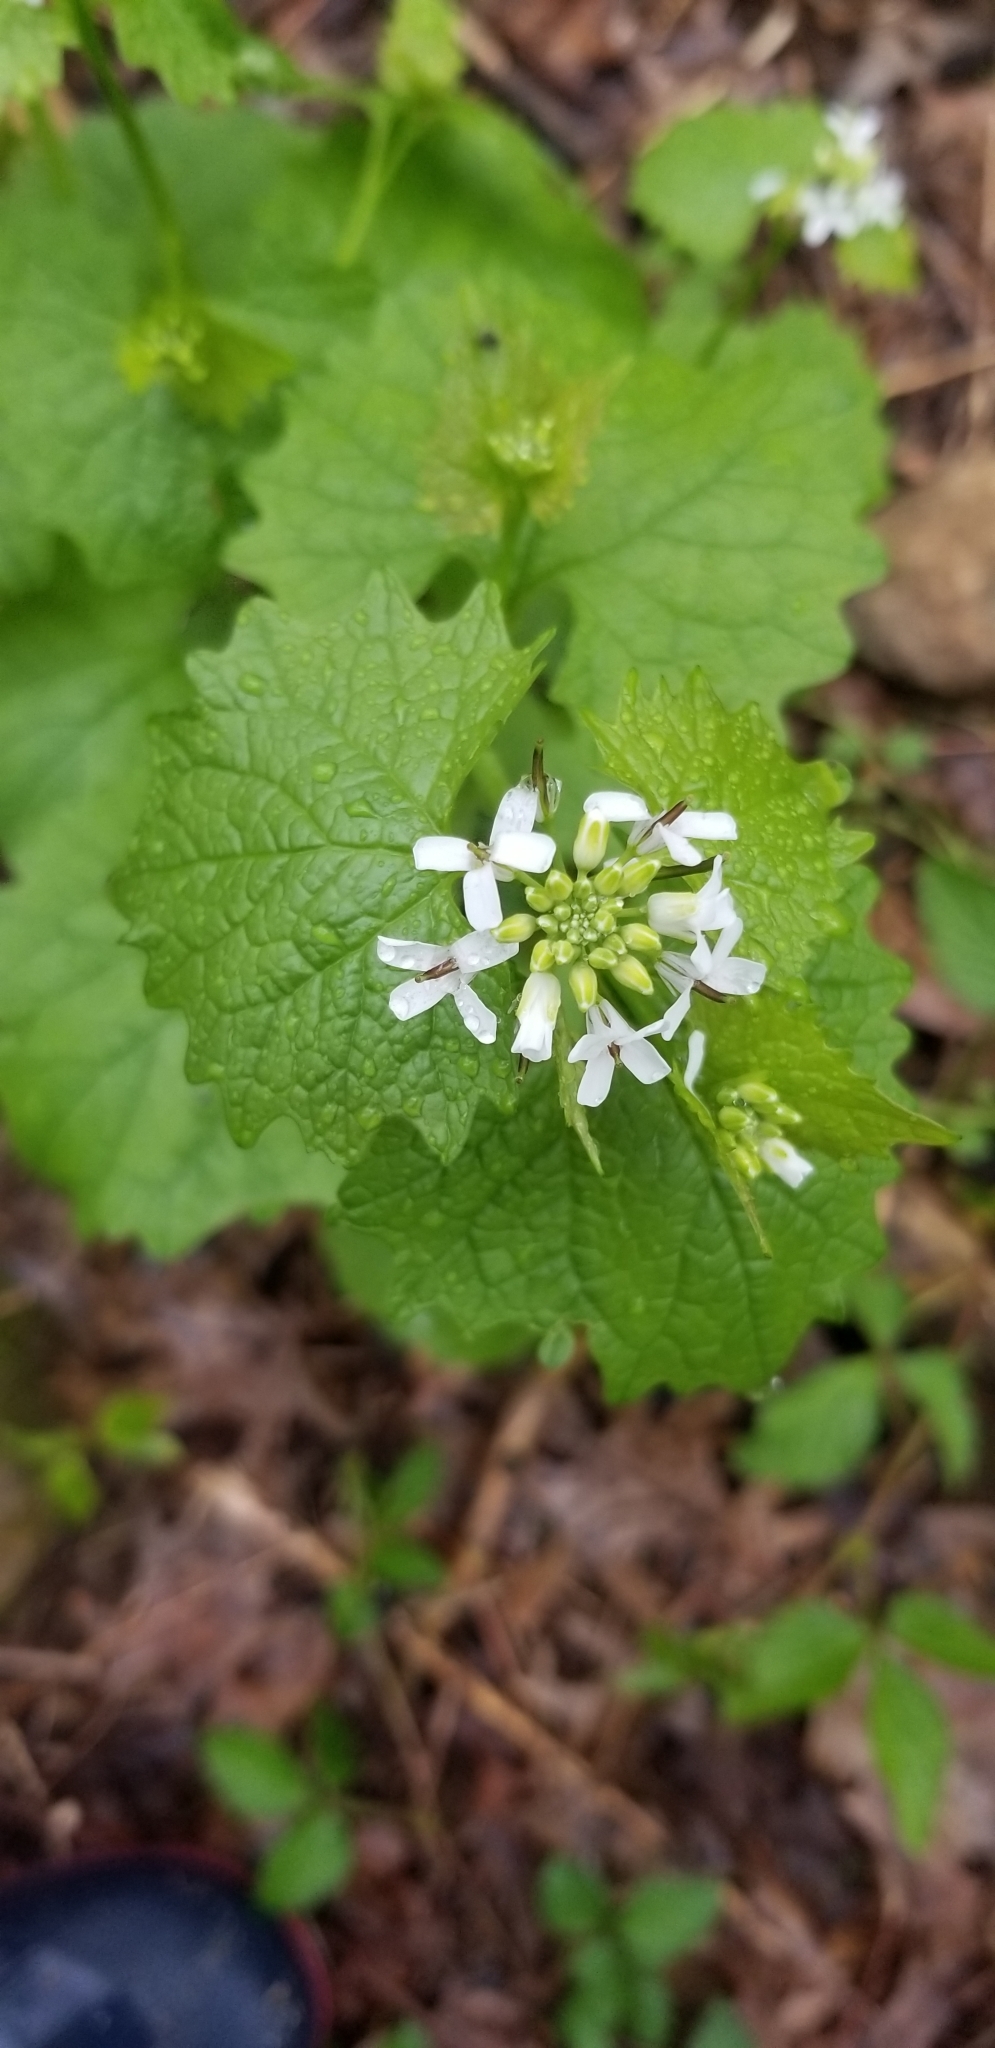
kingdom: Plantae
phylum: Tracheophyta
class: Magnoliopsida
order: Brassicales
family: Brassicaceae
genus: Alliaria
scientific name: Alliaria petiolata
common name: Garlic mustard
